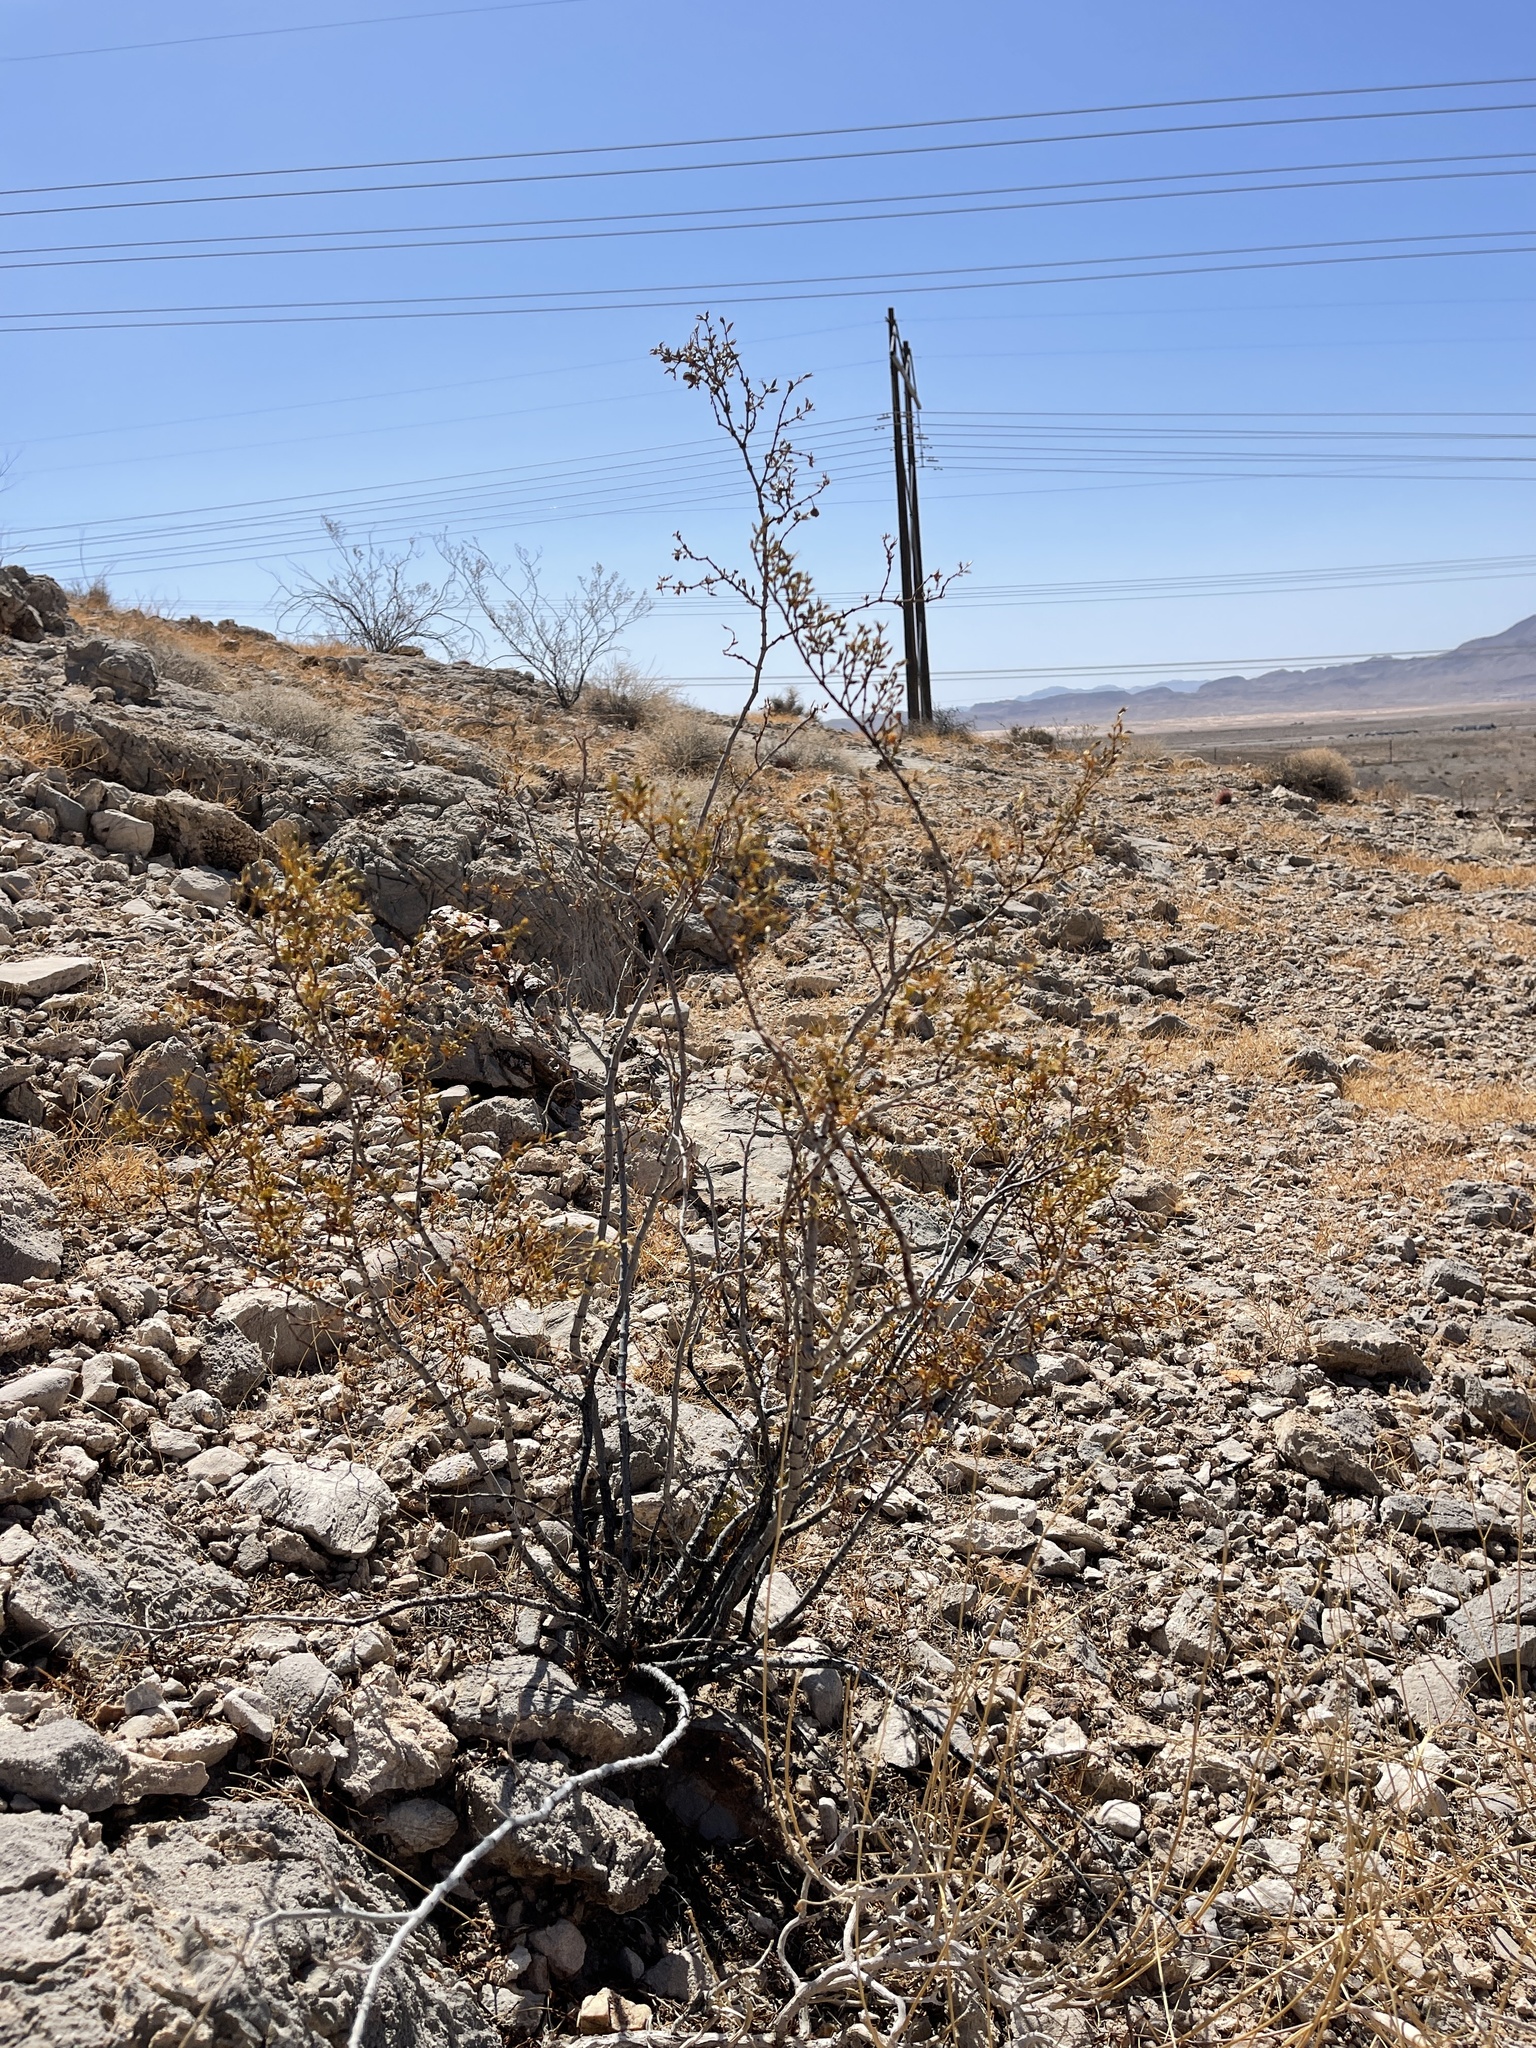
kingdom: Plantae
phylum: Tracheophyta
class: Magnoliopsida
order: Zygophyllales
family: Zygophyllaceae
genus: Larrea
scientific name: Larrea tridentata
